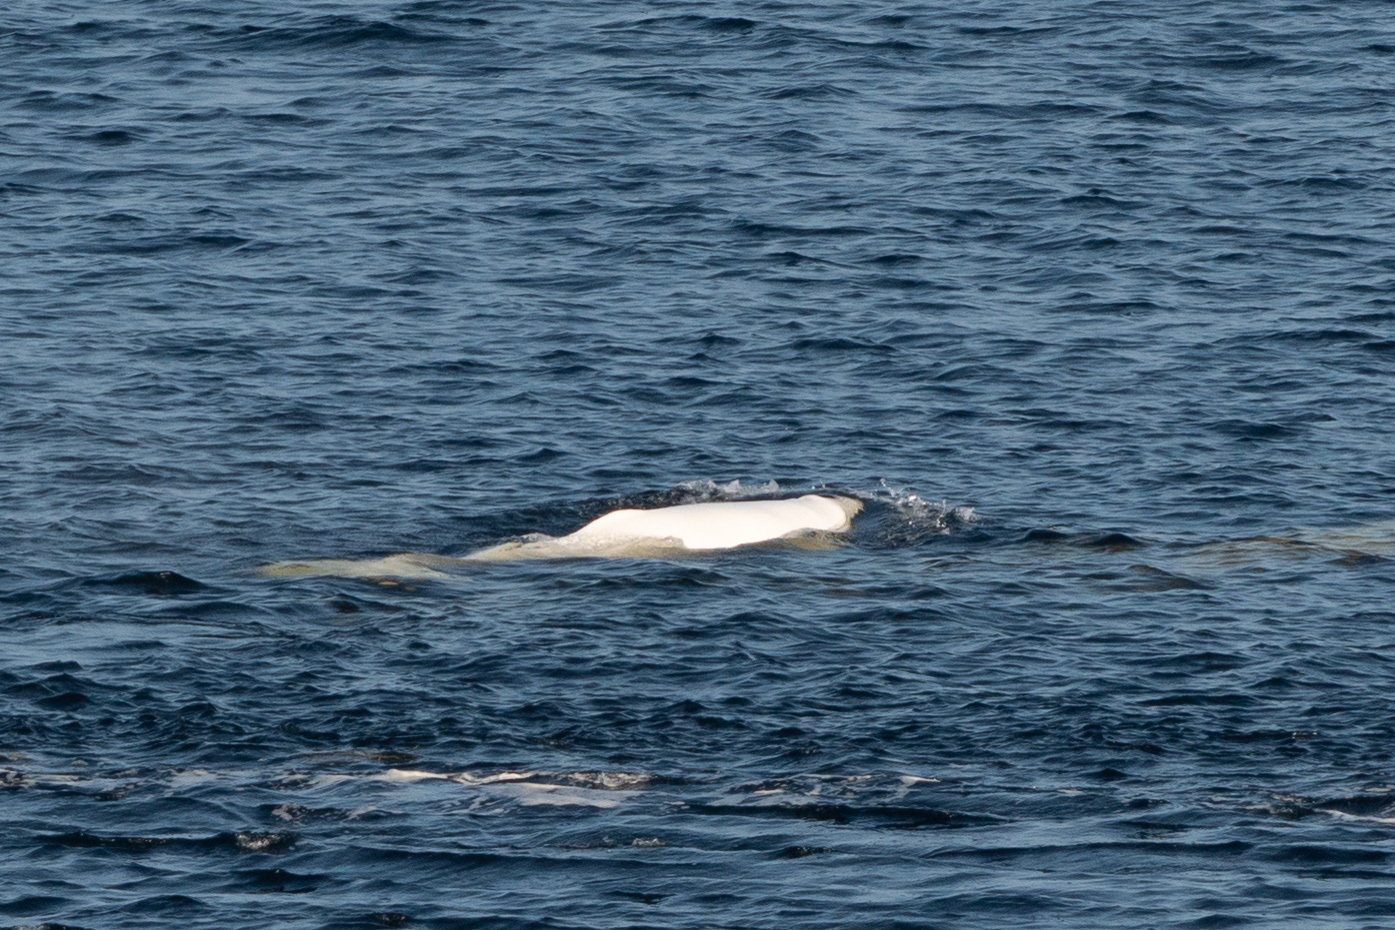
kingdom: Animalia
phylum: Chordata
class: Mammalia
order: Cetacea
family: Monodontidae
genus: Delphinapterus
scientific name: Delphinapterus leucas
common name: Beluga
